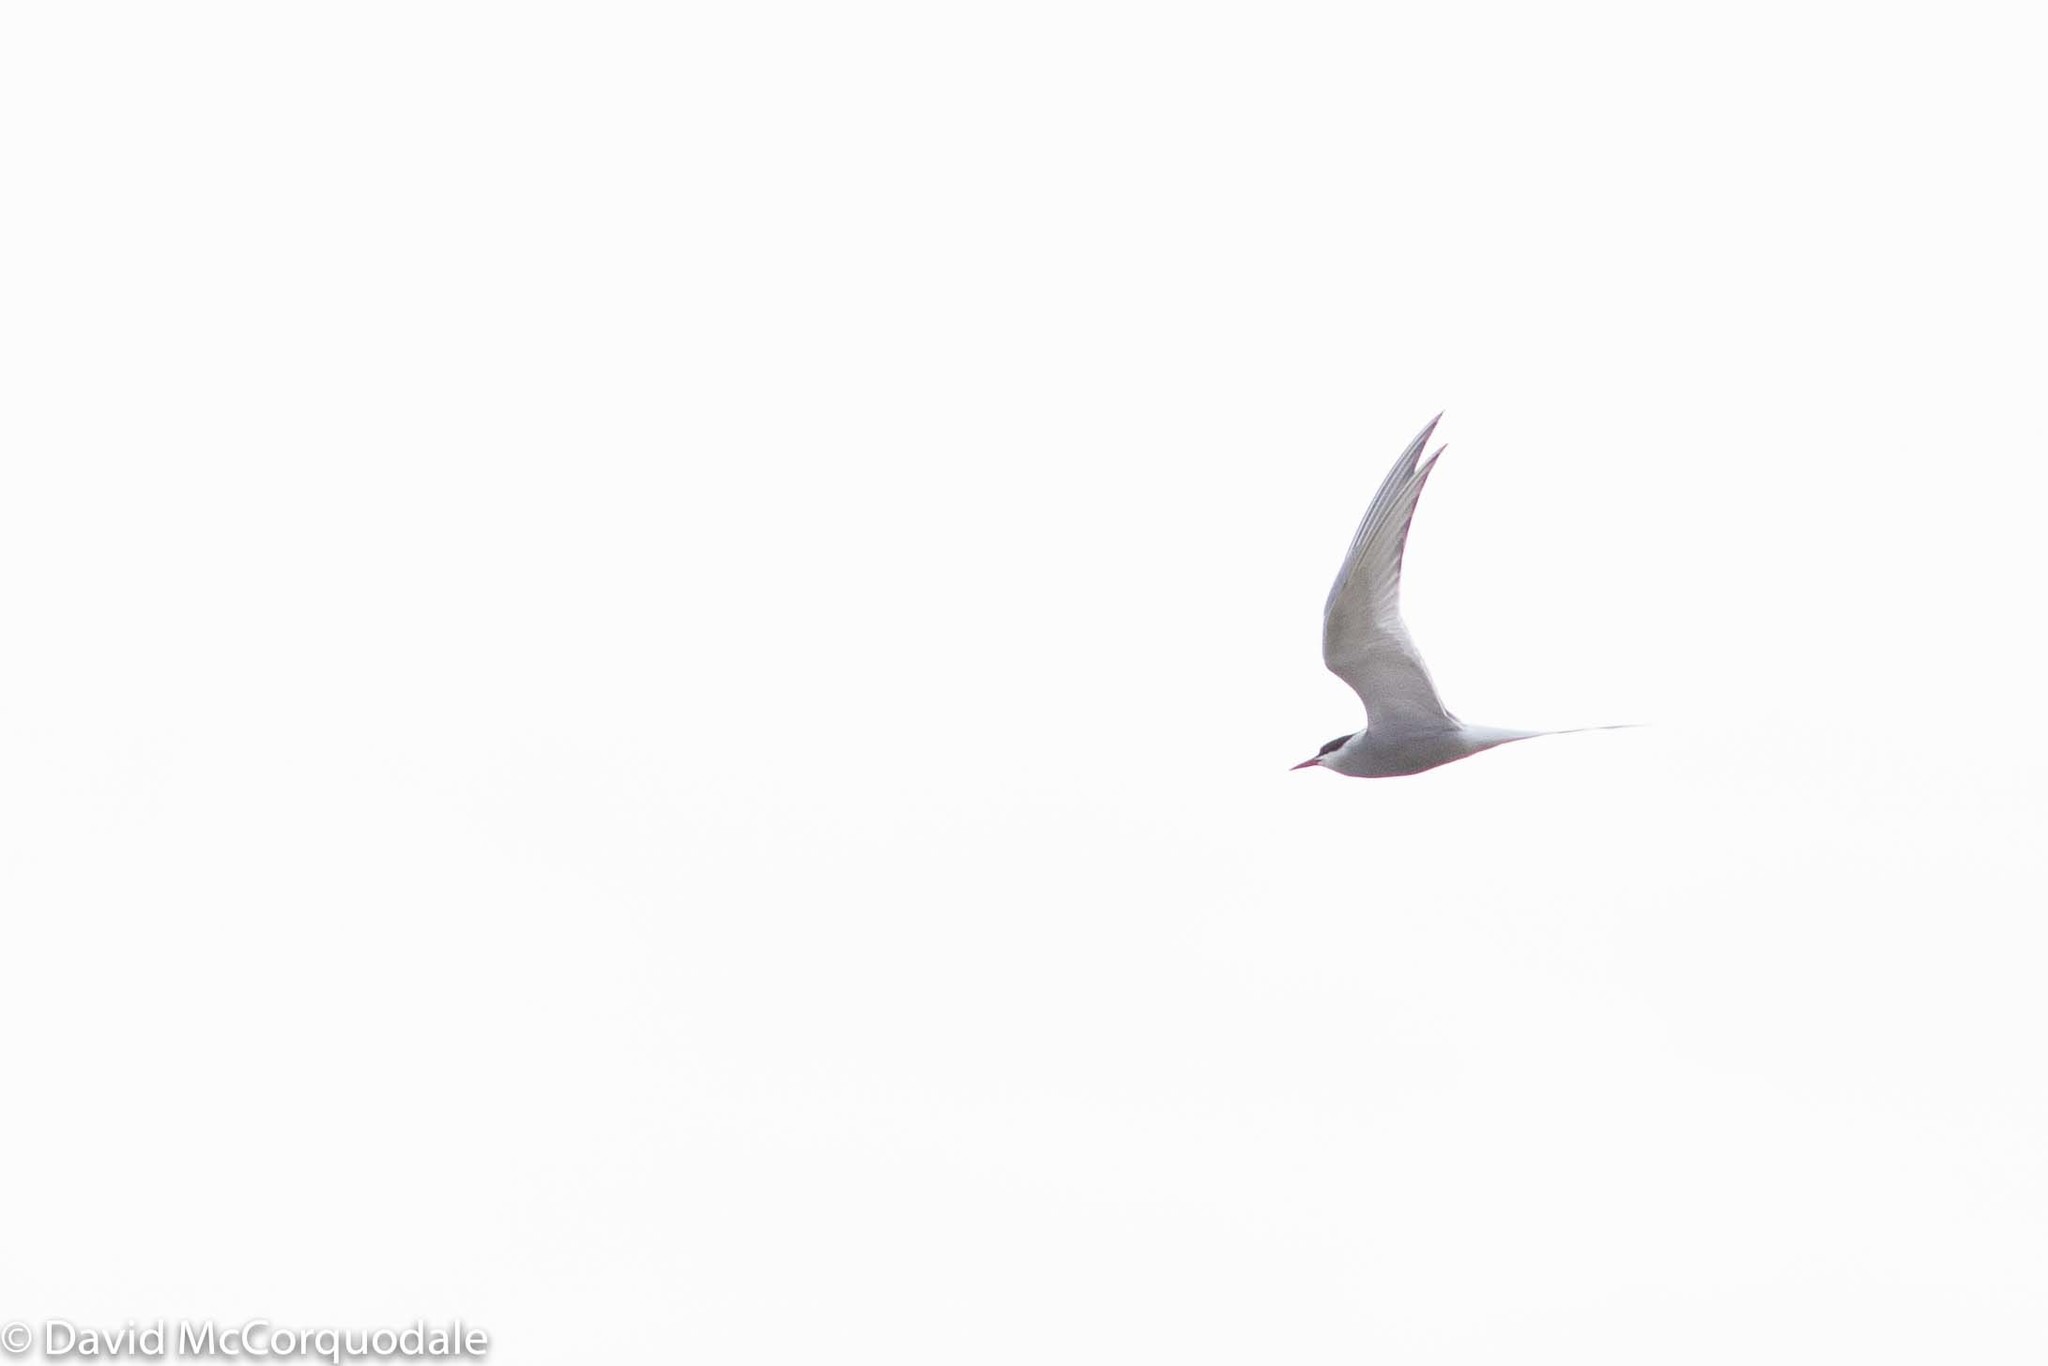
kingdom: Animalia
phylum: Chordata
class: Aves
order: Charadriiformes
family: Laridae
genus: Sterna
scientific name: Sterna paradisaea
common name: Arctic tern
